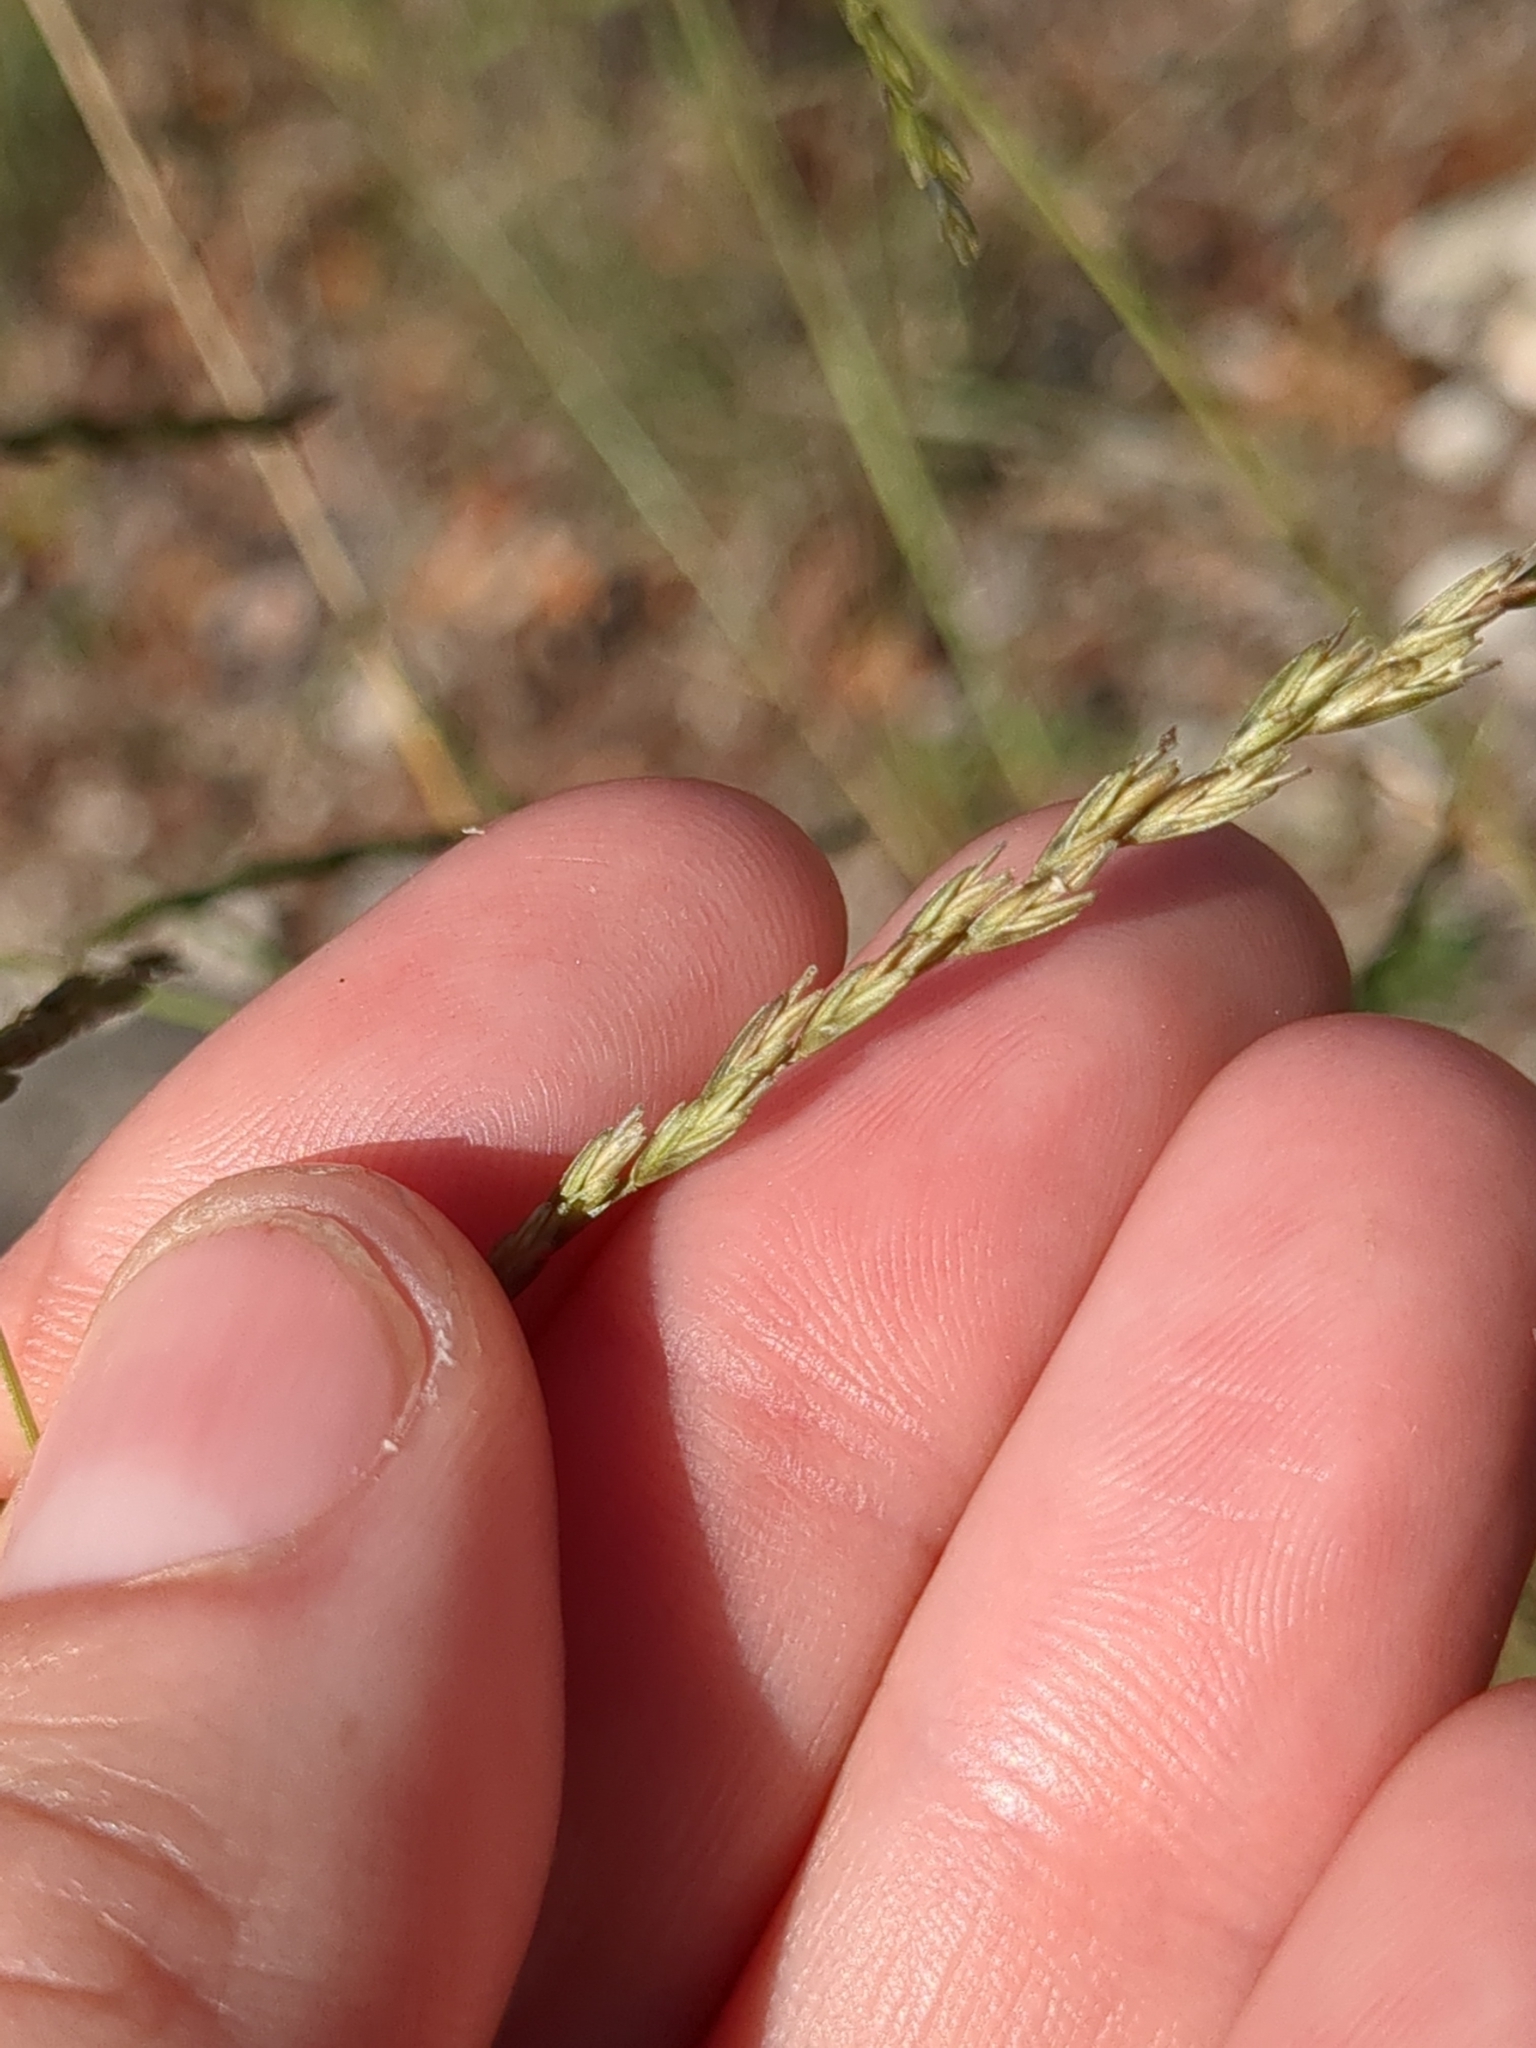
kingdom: Plantae
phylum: Tracheophyta
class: Liliopsida
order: Poales
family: Poaceae
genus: Disakisperma
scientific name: Disakisperma dubium
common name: Green sprangletop
